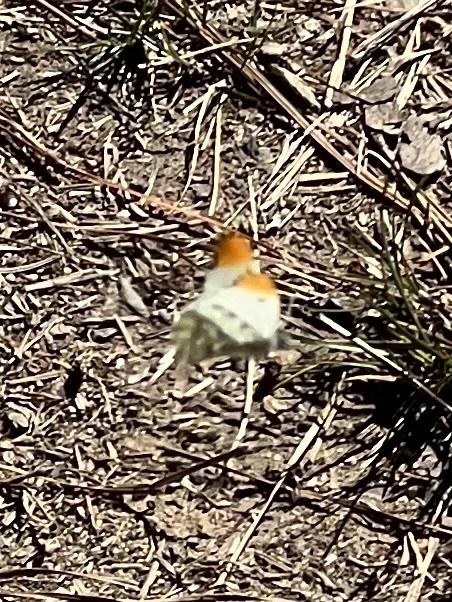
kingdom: Animalia
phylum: Arthropoda
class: Insecta
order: Lepidoptera
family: Pieridae
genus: Anthocharis
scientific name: Anthocharis midea
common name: Falcate orangetip
